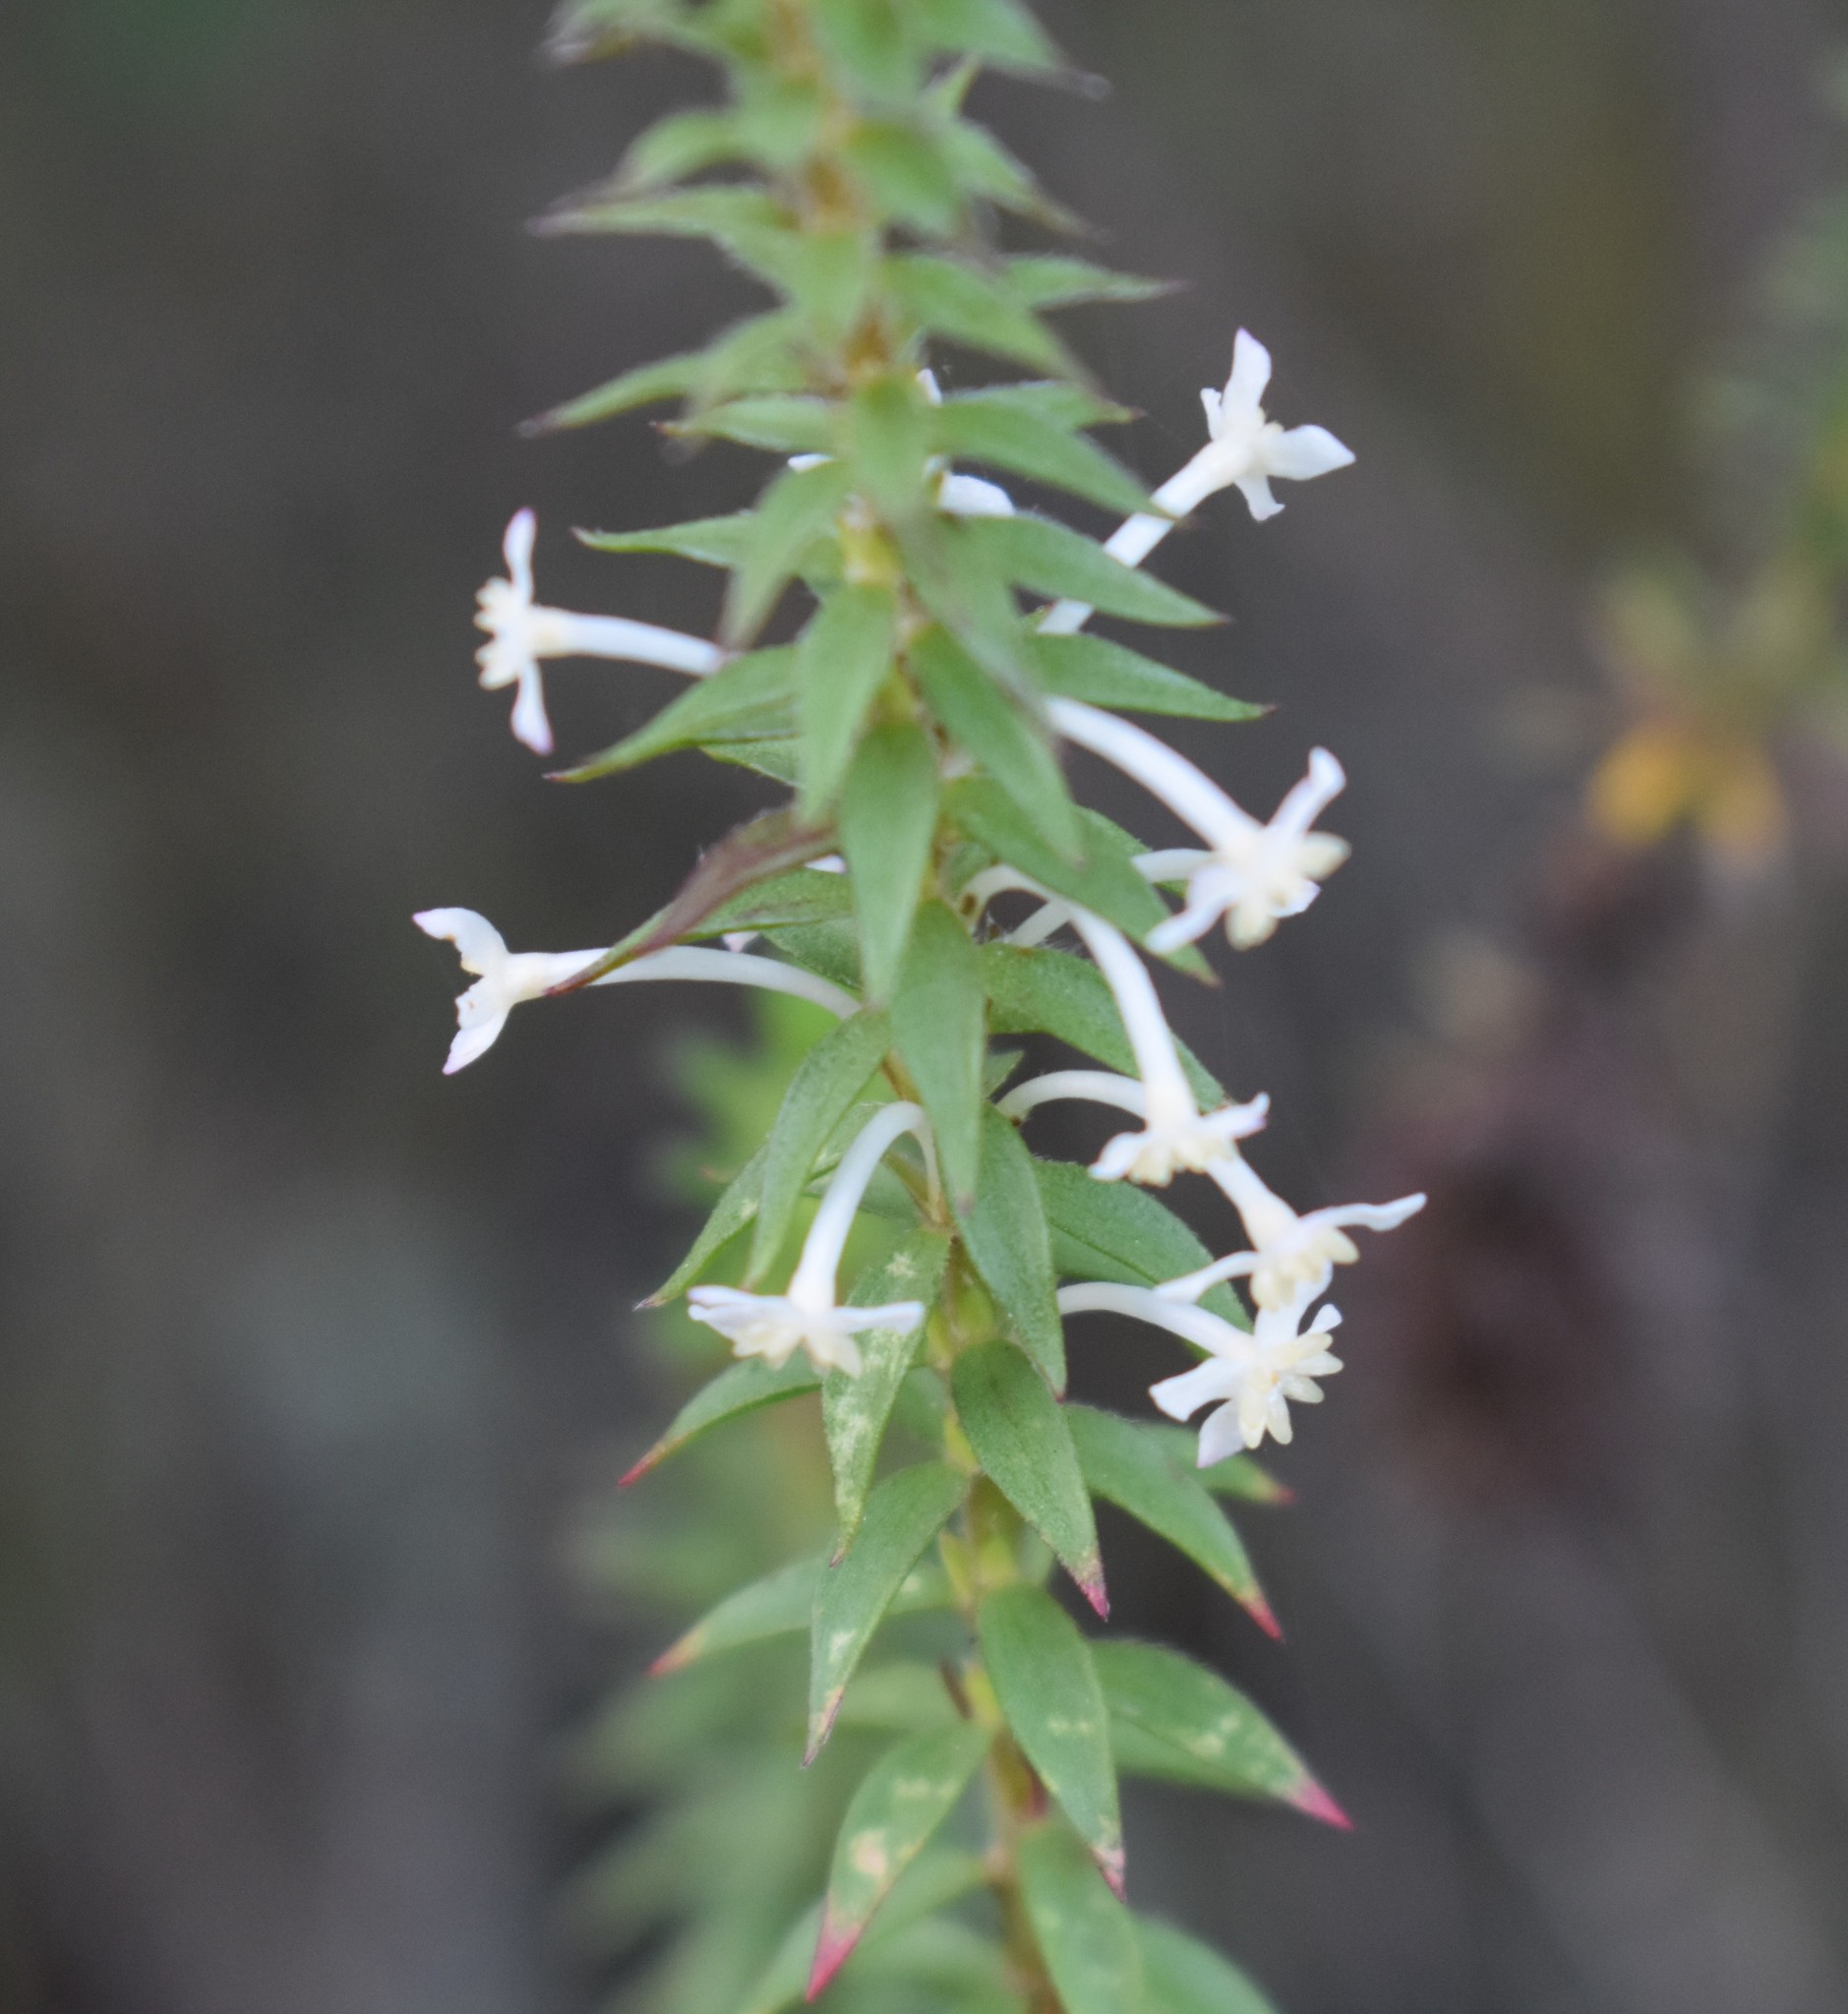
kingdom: Plantae
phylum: Tracheophyta
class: Magnoliopsida
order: Malvales
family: Thymelaeaceae
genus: Struthiola
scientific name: Struthiola hirsuta
